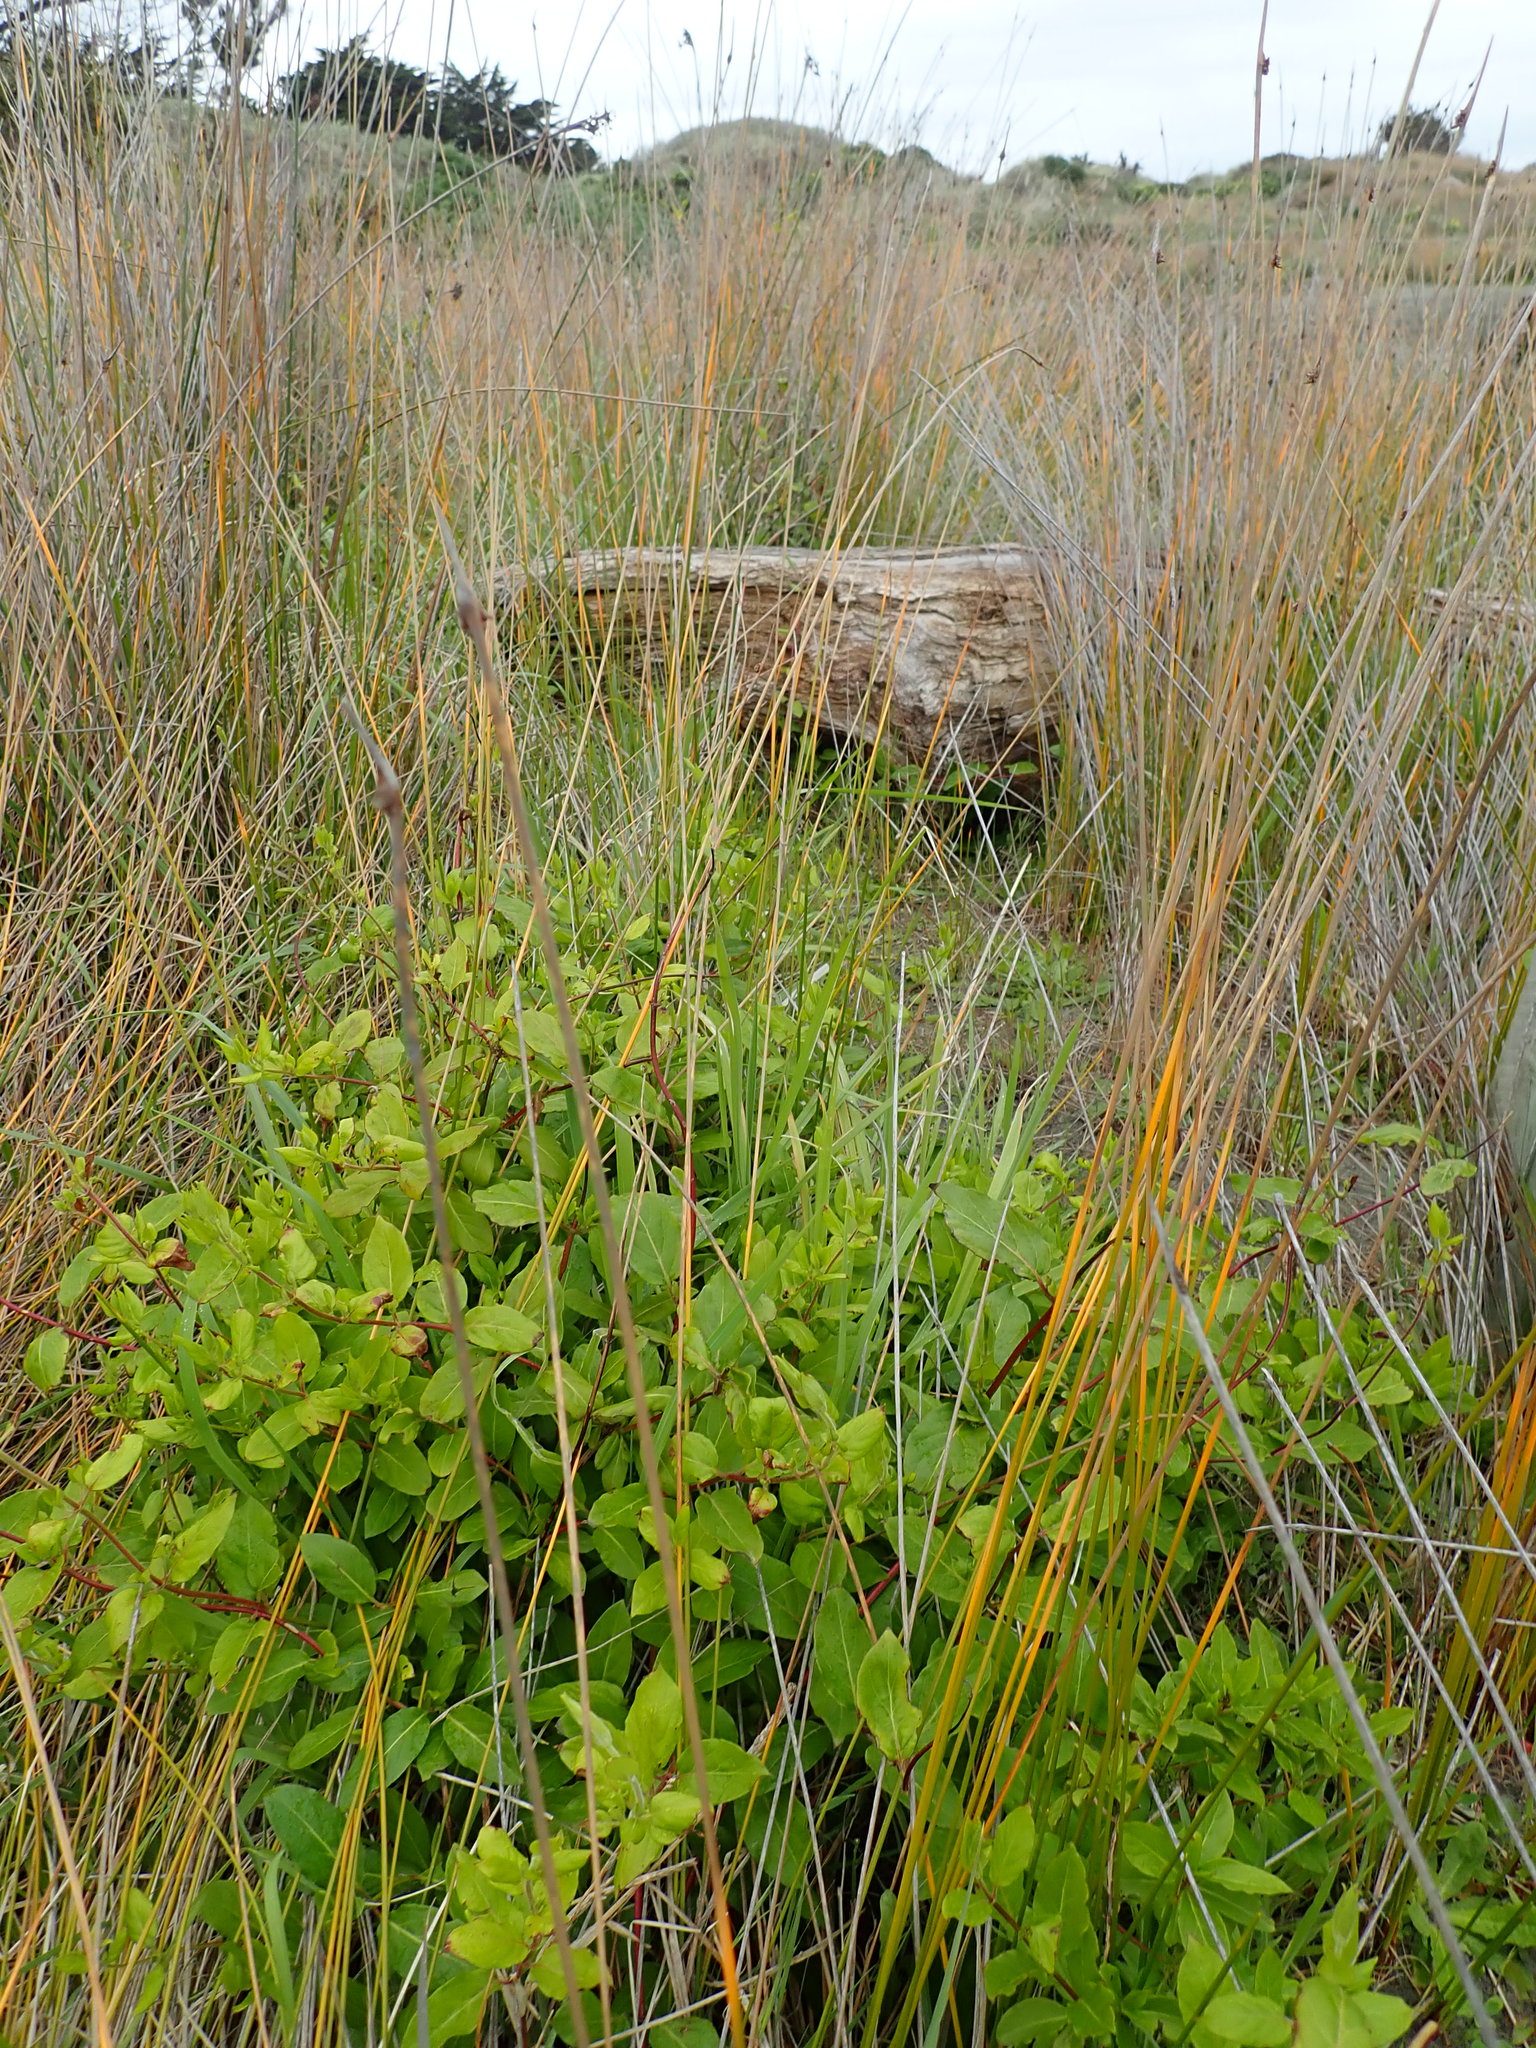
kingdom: Plantae
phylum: Tracheophyta
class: Magnoliopsida
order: Dipsacales
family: Caprifoliaceae
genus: Lonicera
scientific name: Lonicera japonica
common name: Japanese honeysuckle
